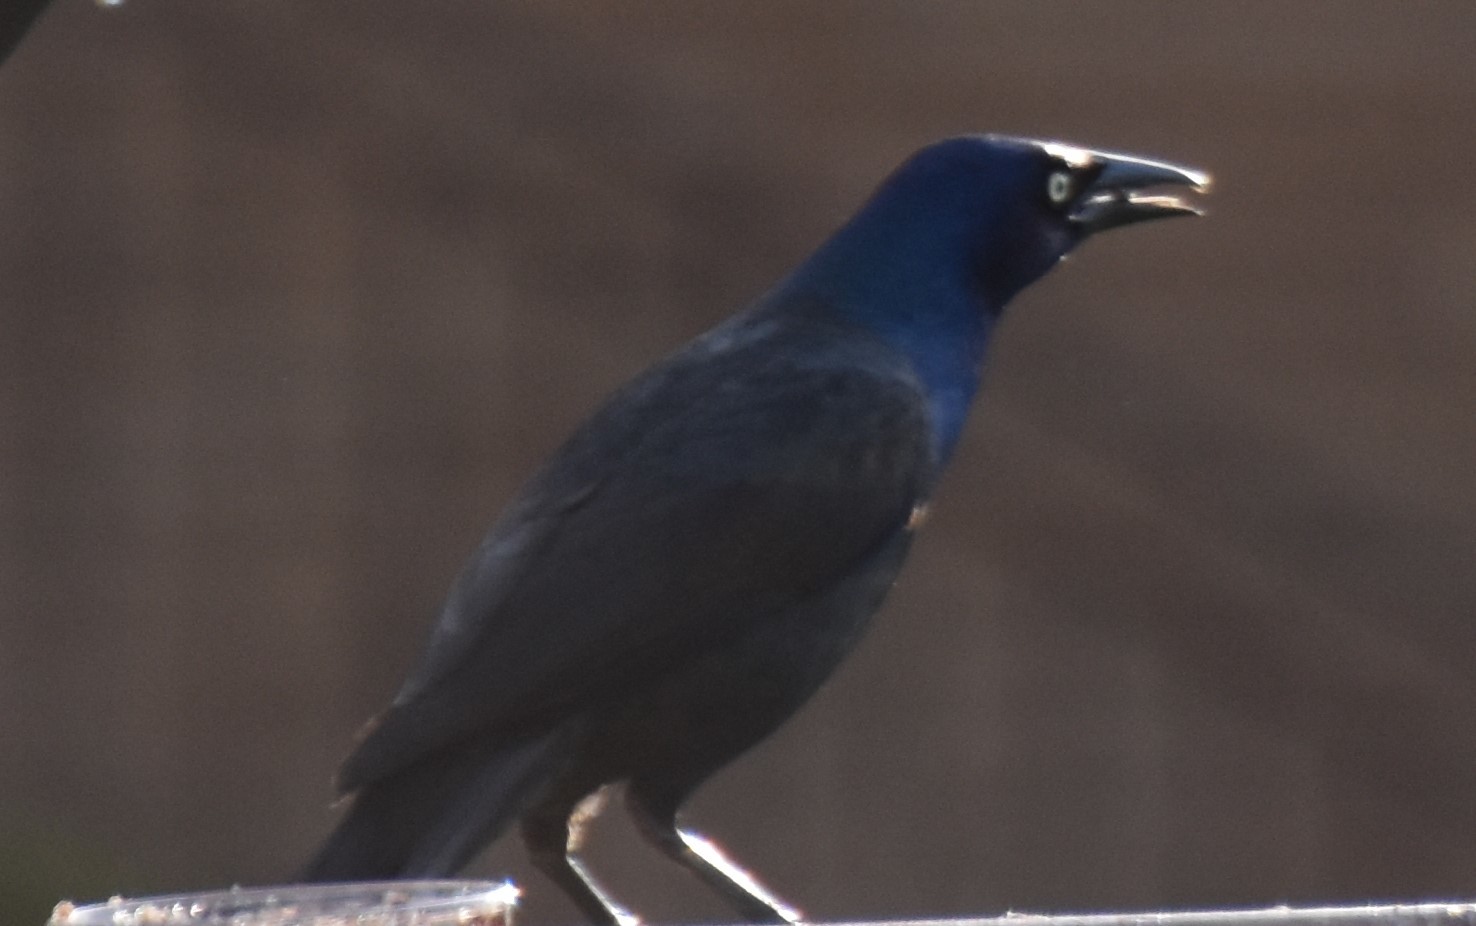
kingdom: Animalia
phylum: Chordata
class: Aves
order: Passeriformes
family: Icteridae
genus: Quiscalus
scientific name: Quiscalus quiscula
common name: Common grackle
